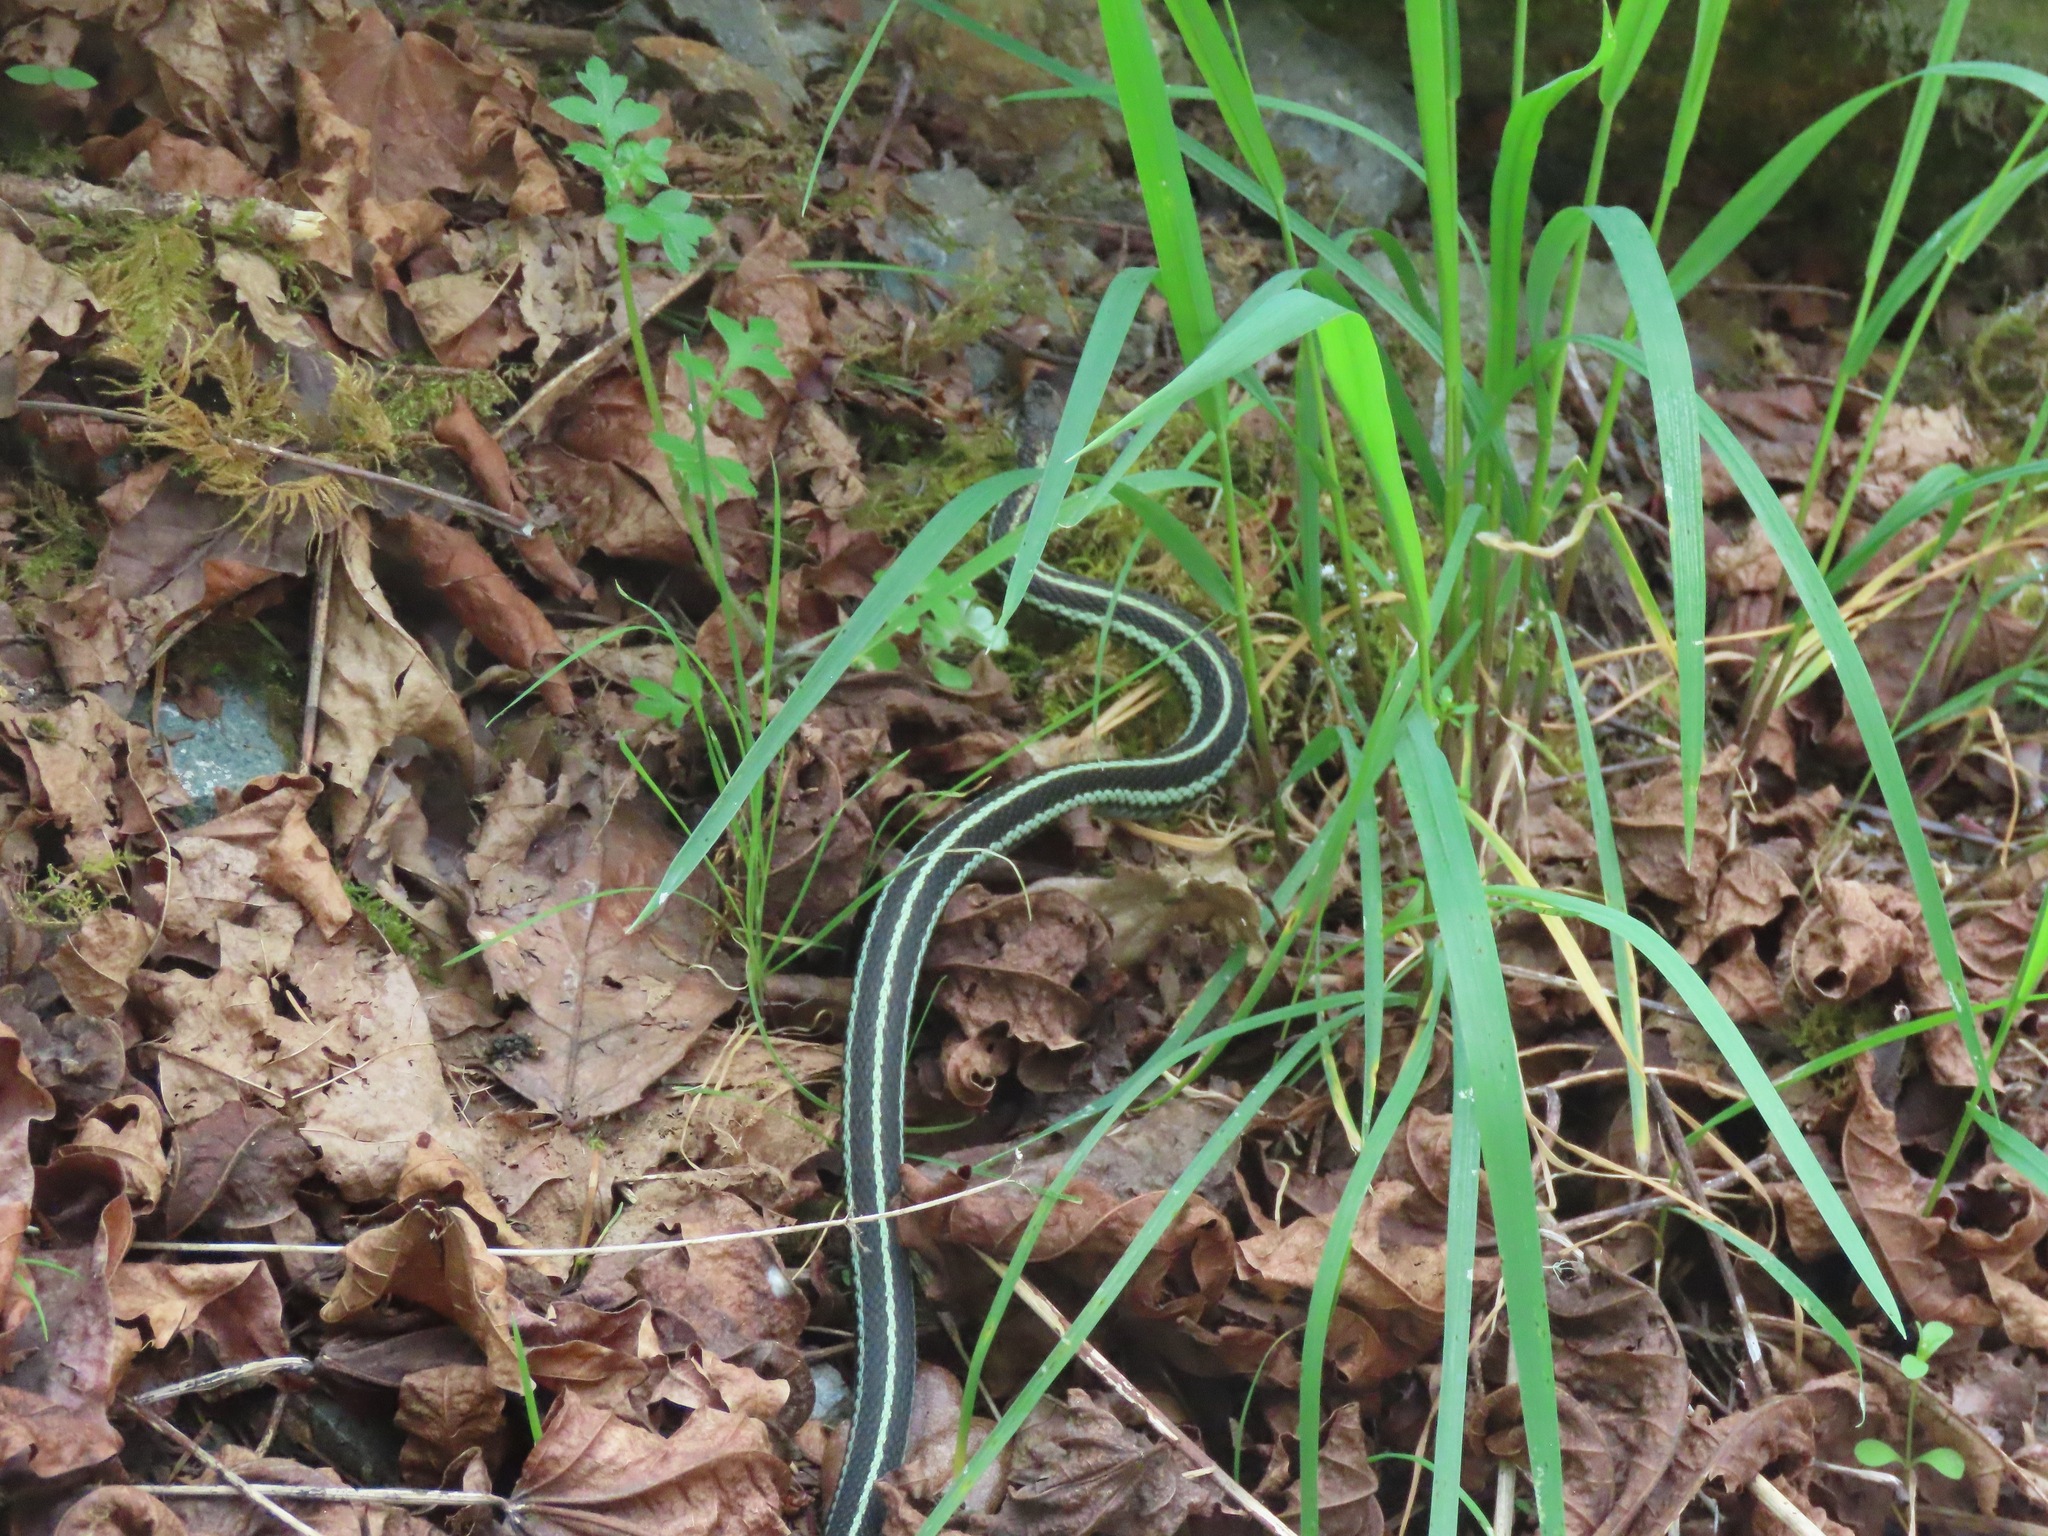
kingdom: Animalia
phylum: Chordata
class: Squamata
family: Colubridae
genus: Thamnophis
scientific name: Thamnophis sirtalis
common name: Common garter snake
